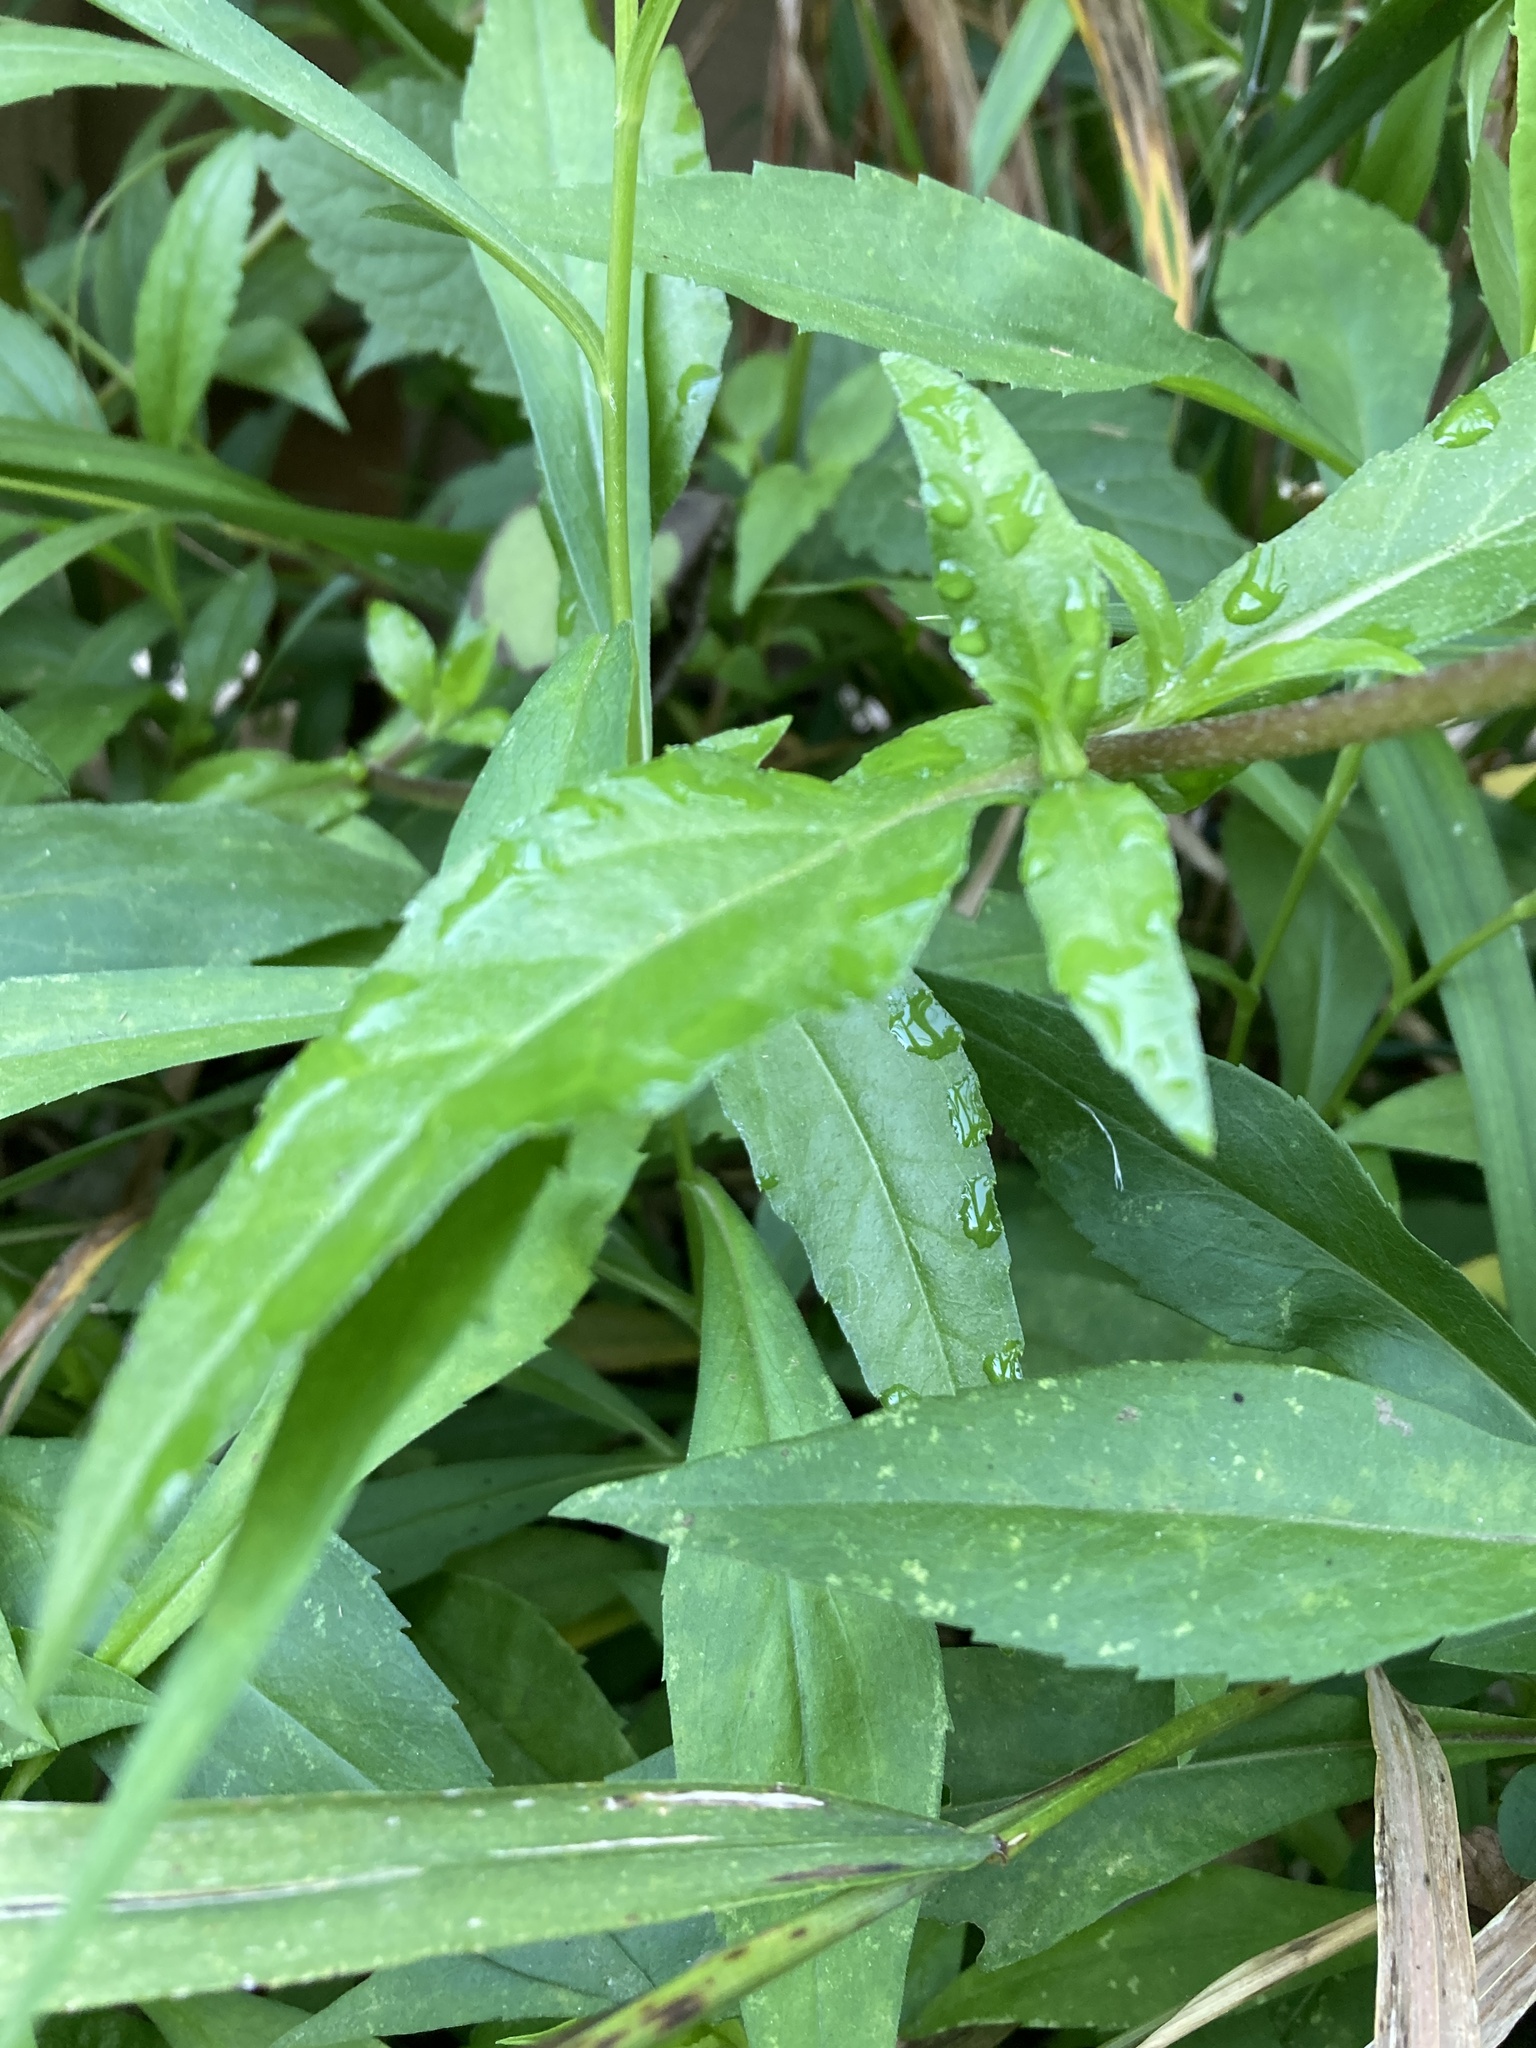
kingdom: Plantae
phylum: Tracheophyta
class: Magnoliopsida
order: Asterales
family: Asteraceae
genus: Eclipta
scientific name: Eclipta prostrata
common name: False daisy
